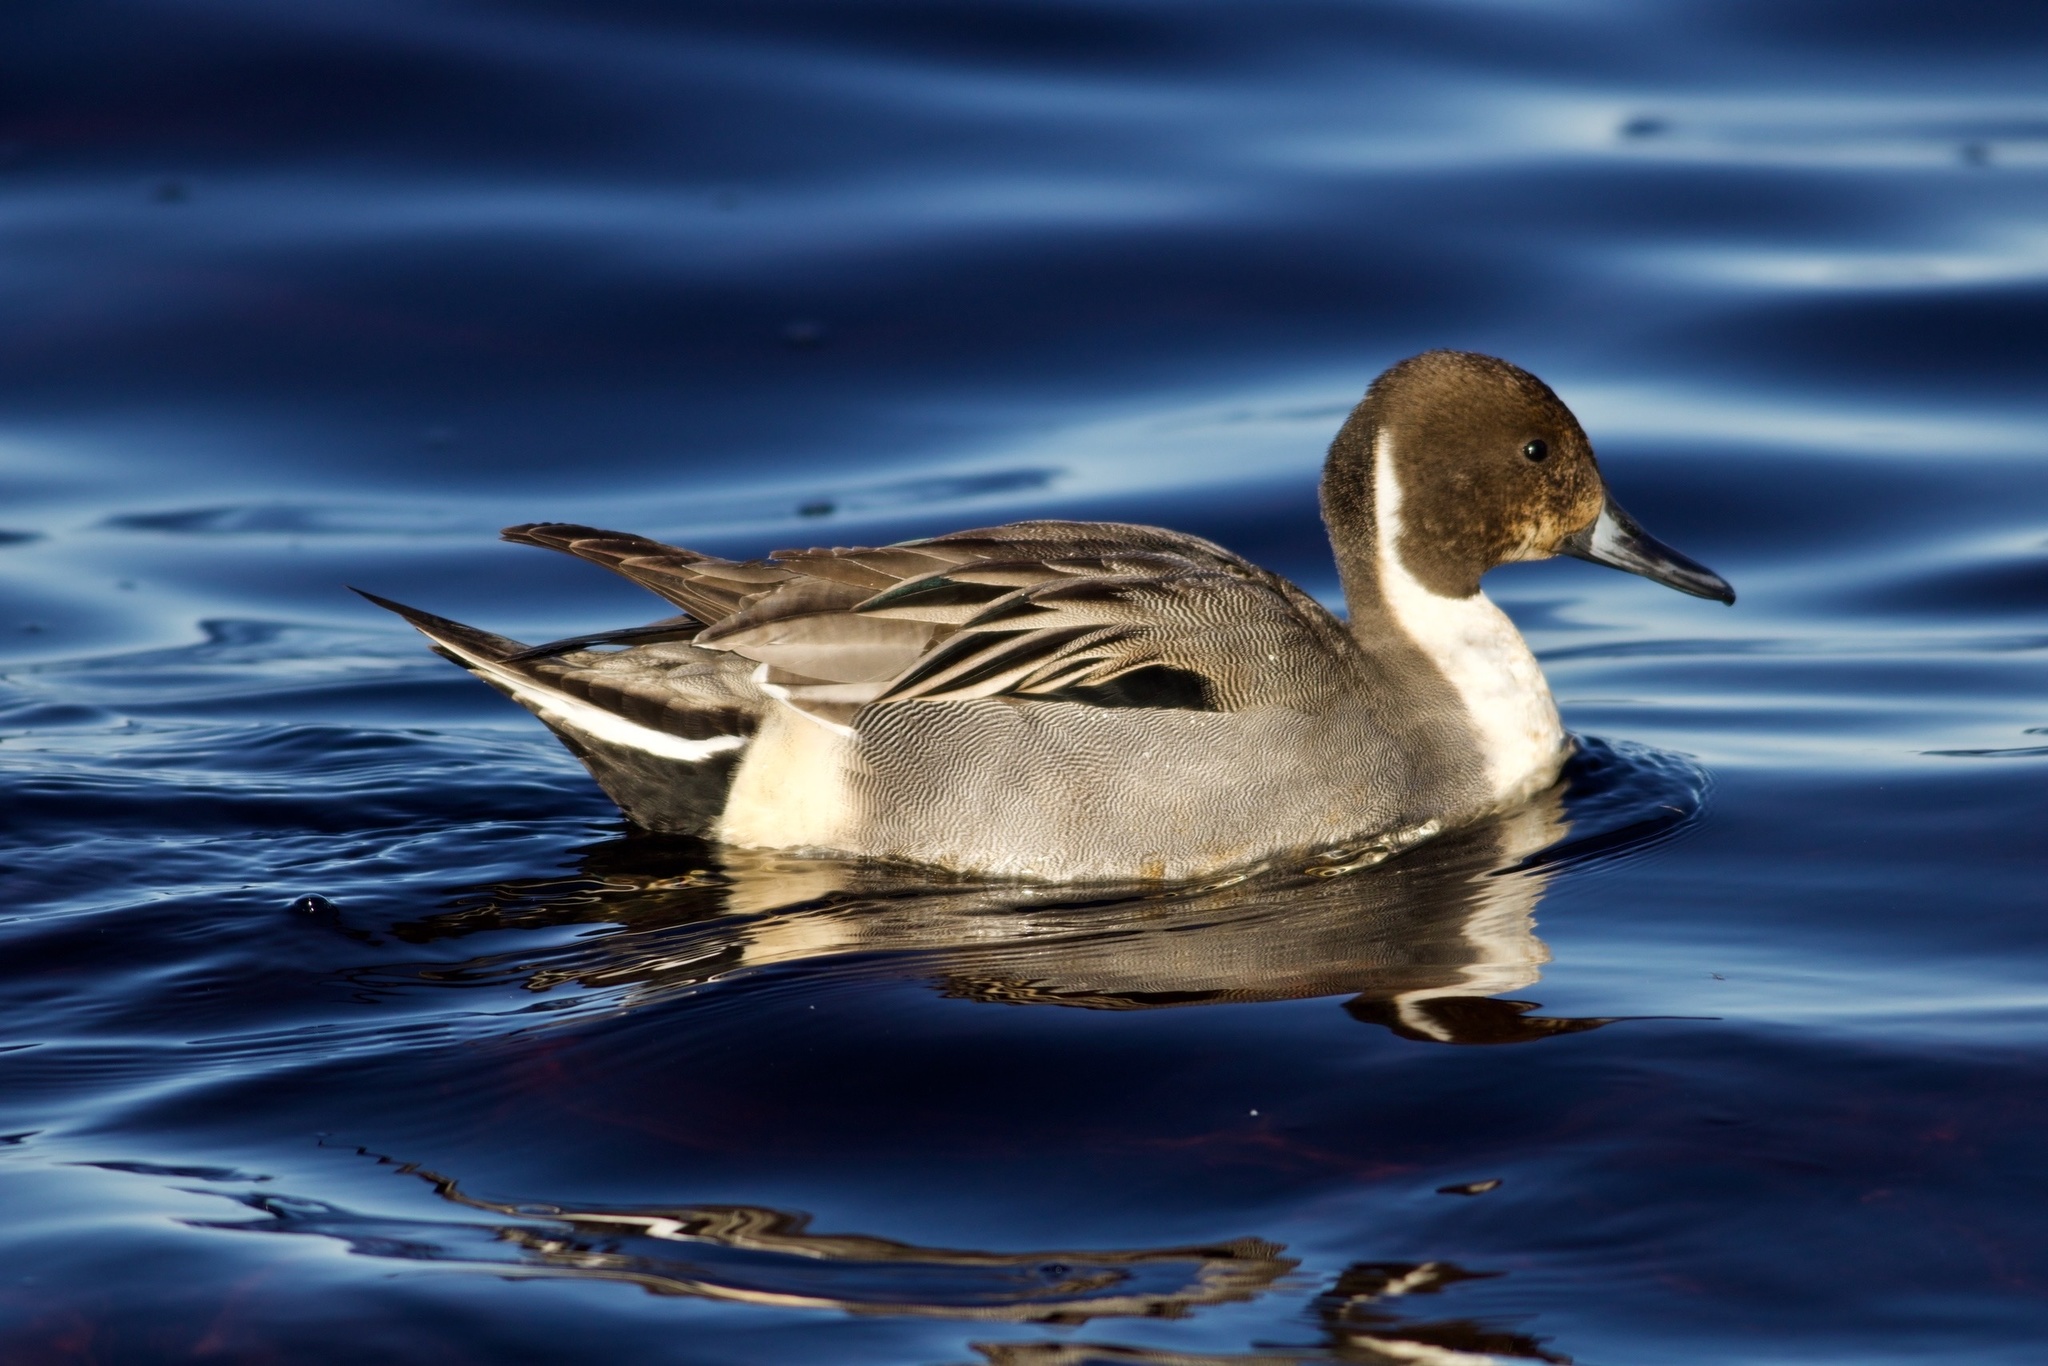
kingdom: Animalia
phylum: Chordata
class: Aves
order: Anseriformes
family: Anatidae
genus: Anas
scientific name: Anas acuta
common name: Northern pintail
